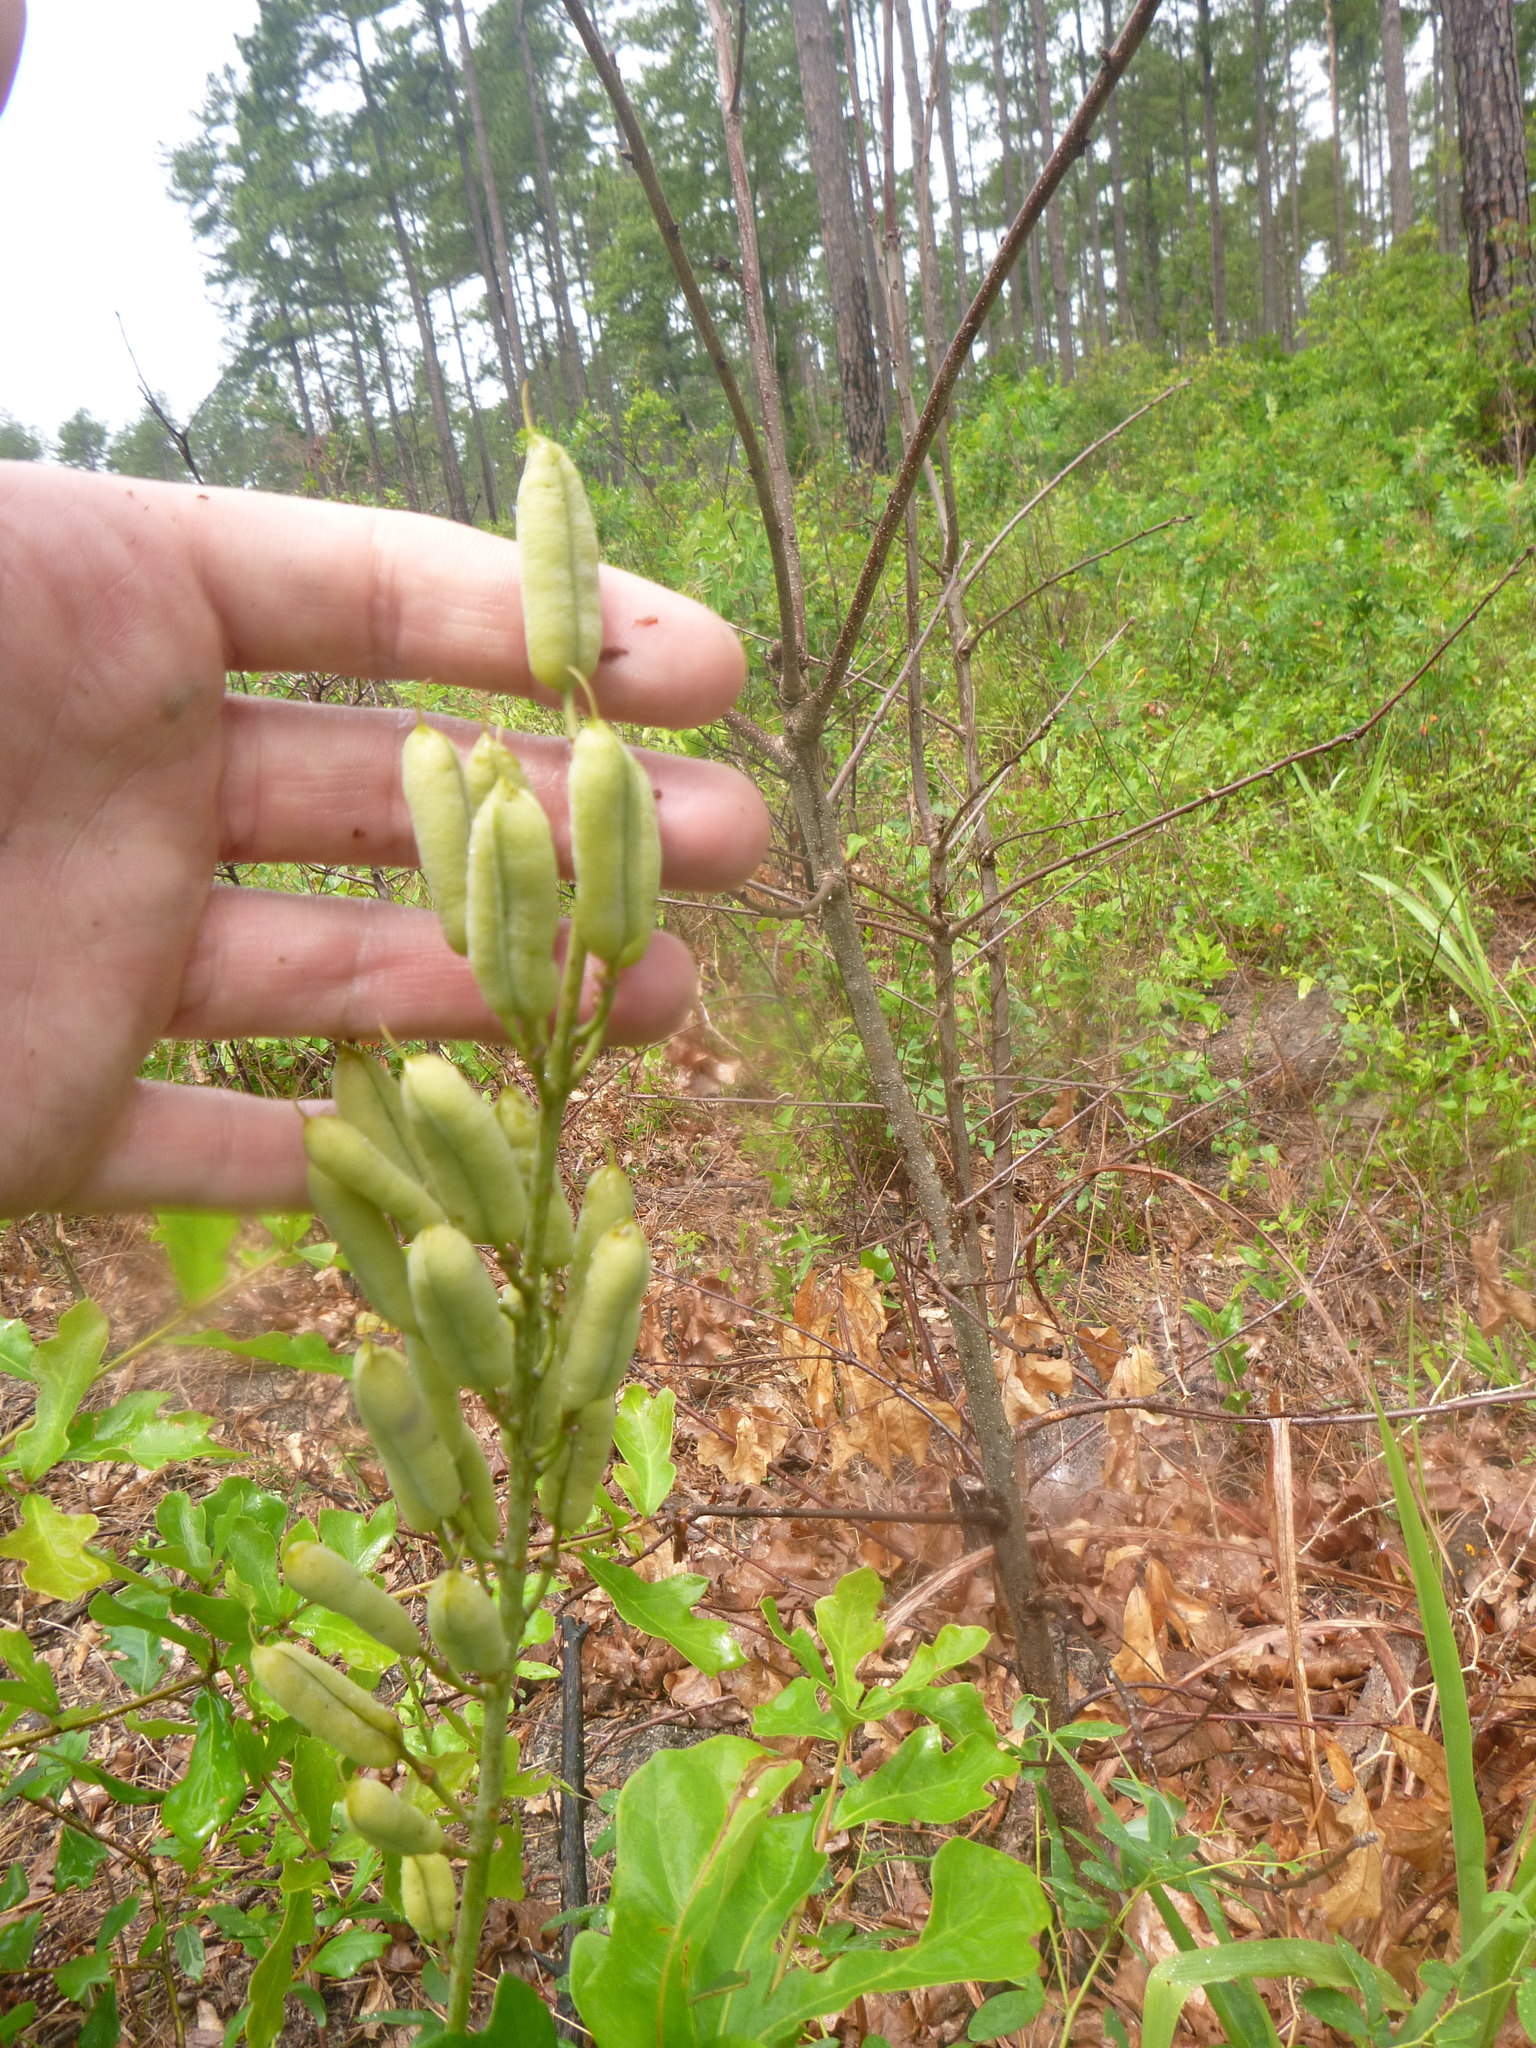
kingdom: Plantae
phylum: Tracheophyta
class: Magnoliopsida
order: Fabales
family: Fabaceae
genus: Baptisia
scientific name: Baptisia albescens
